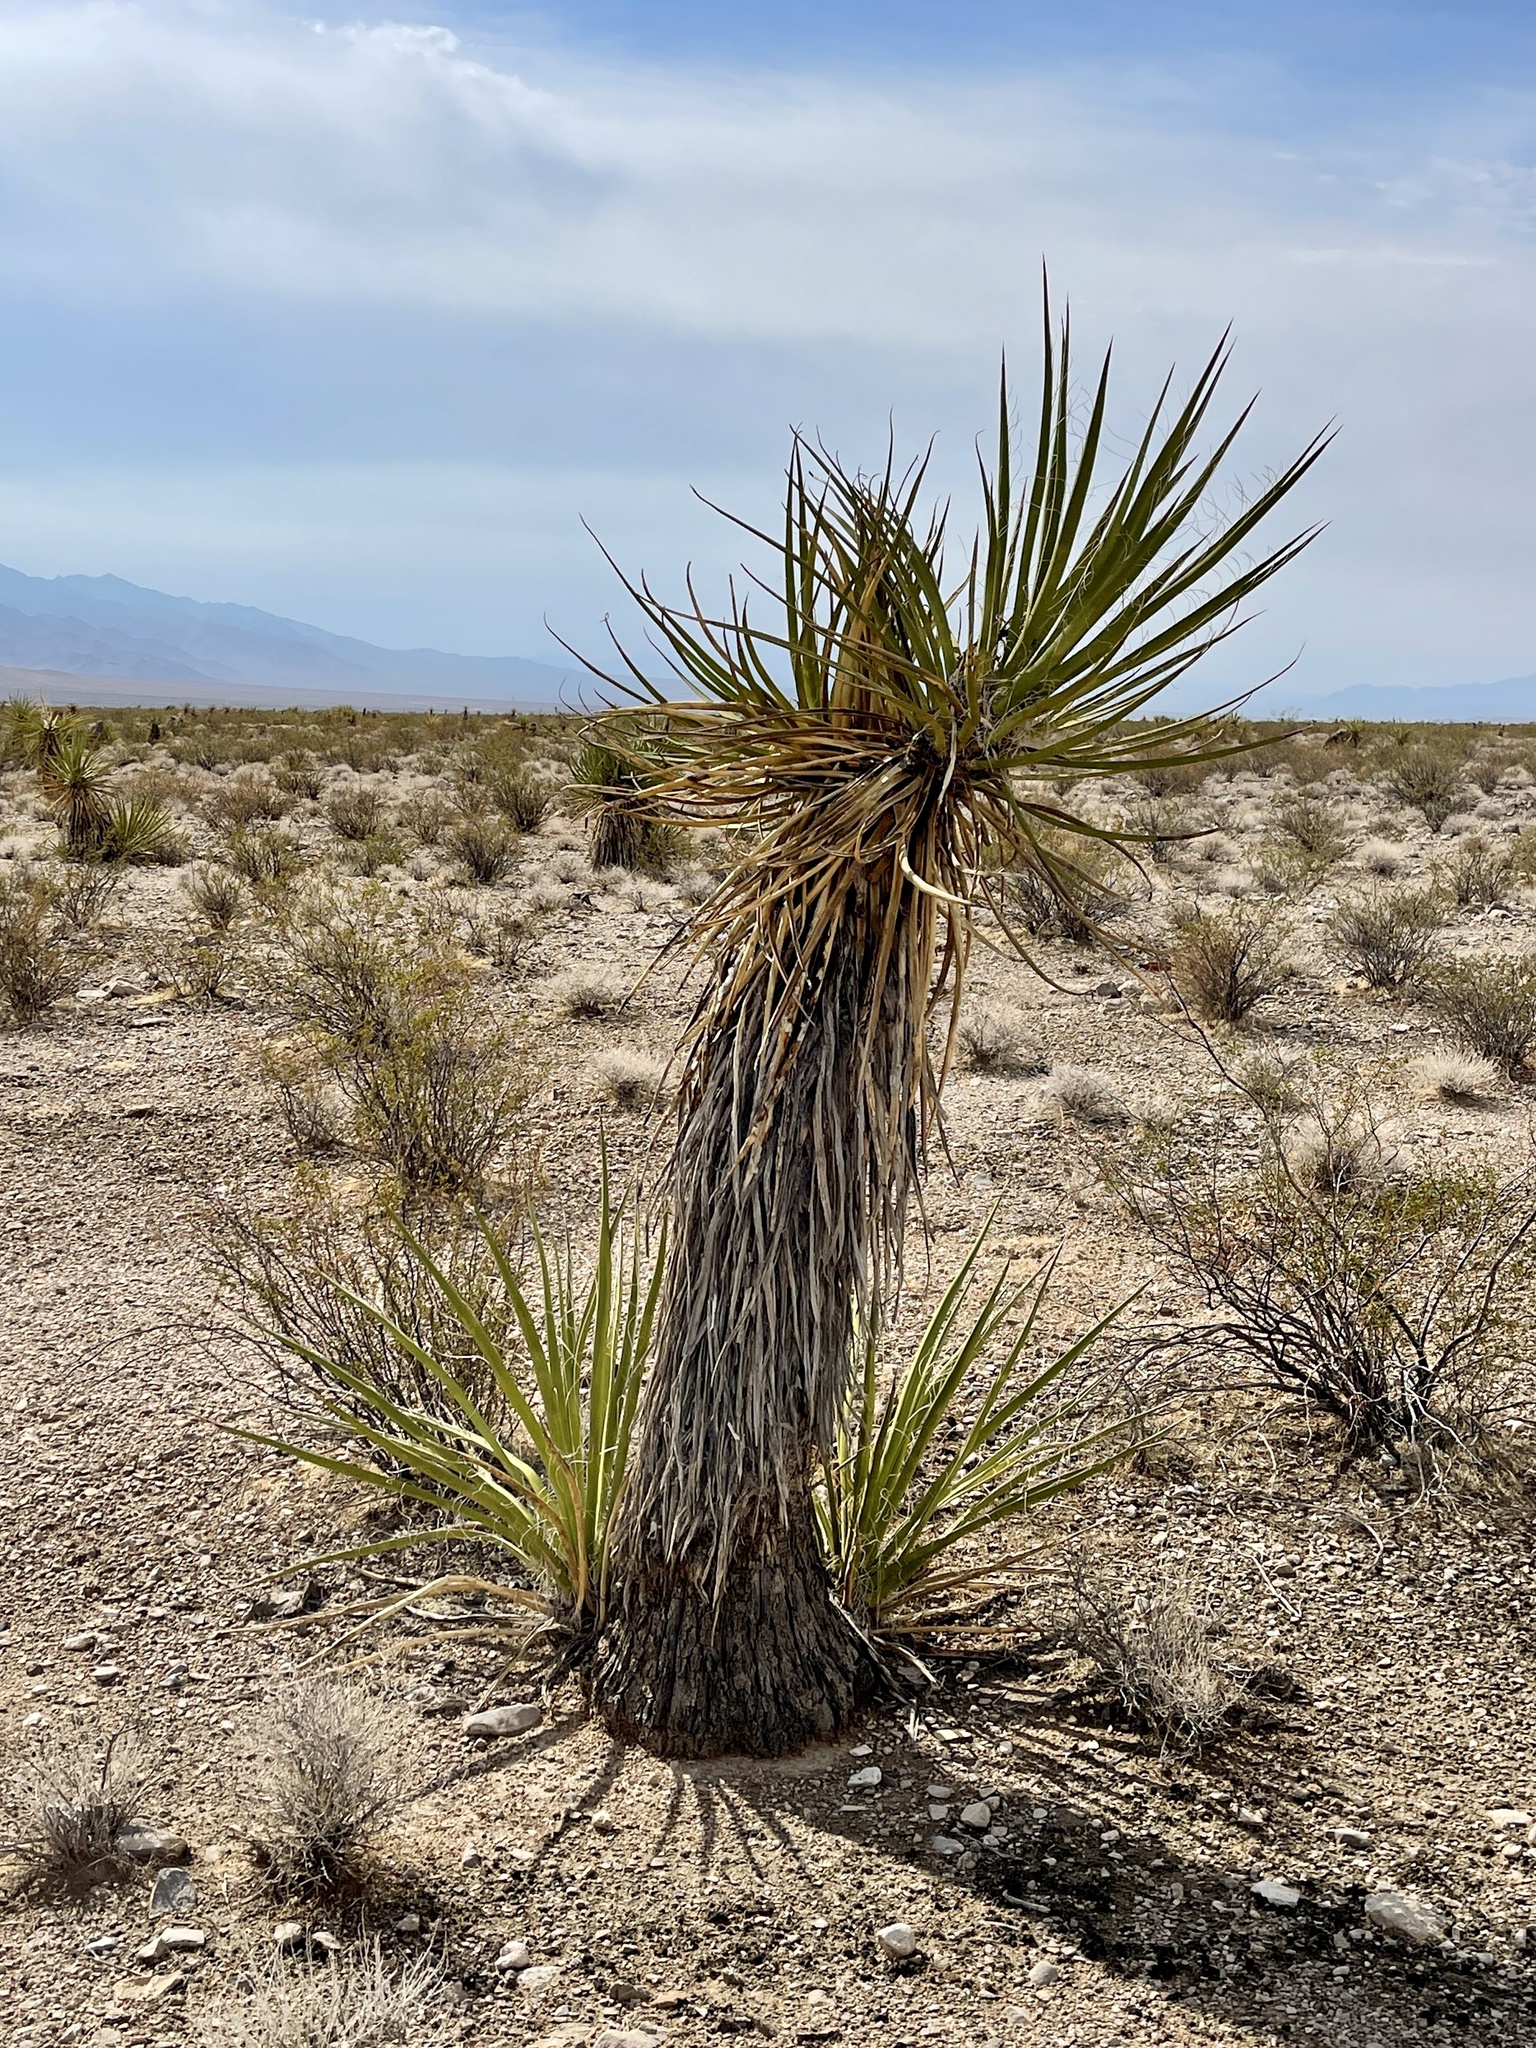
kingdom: Plantae
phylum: Tracheophyta
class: Liliopsida
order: Asparagales
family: Asparagaceae
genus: Yucca
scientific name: Yucca schidigera
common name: Mojave yucca
